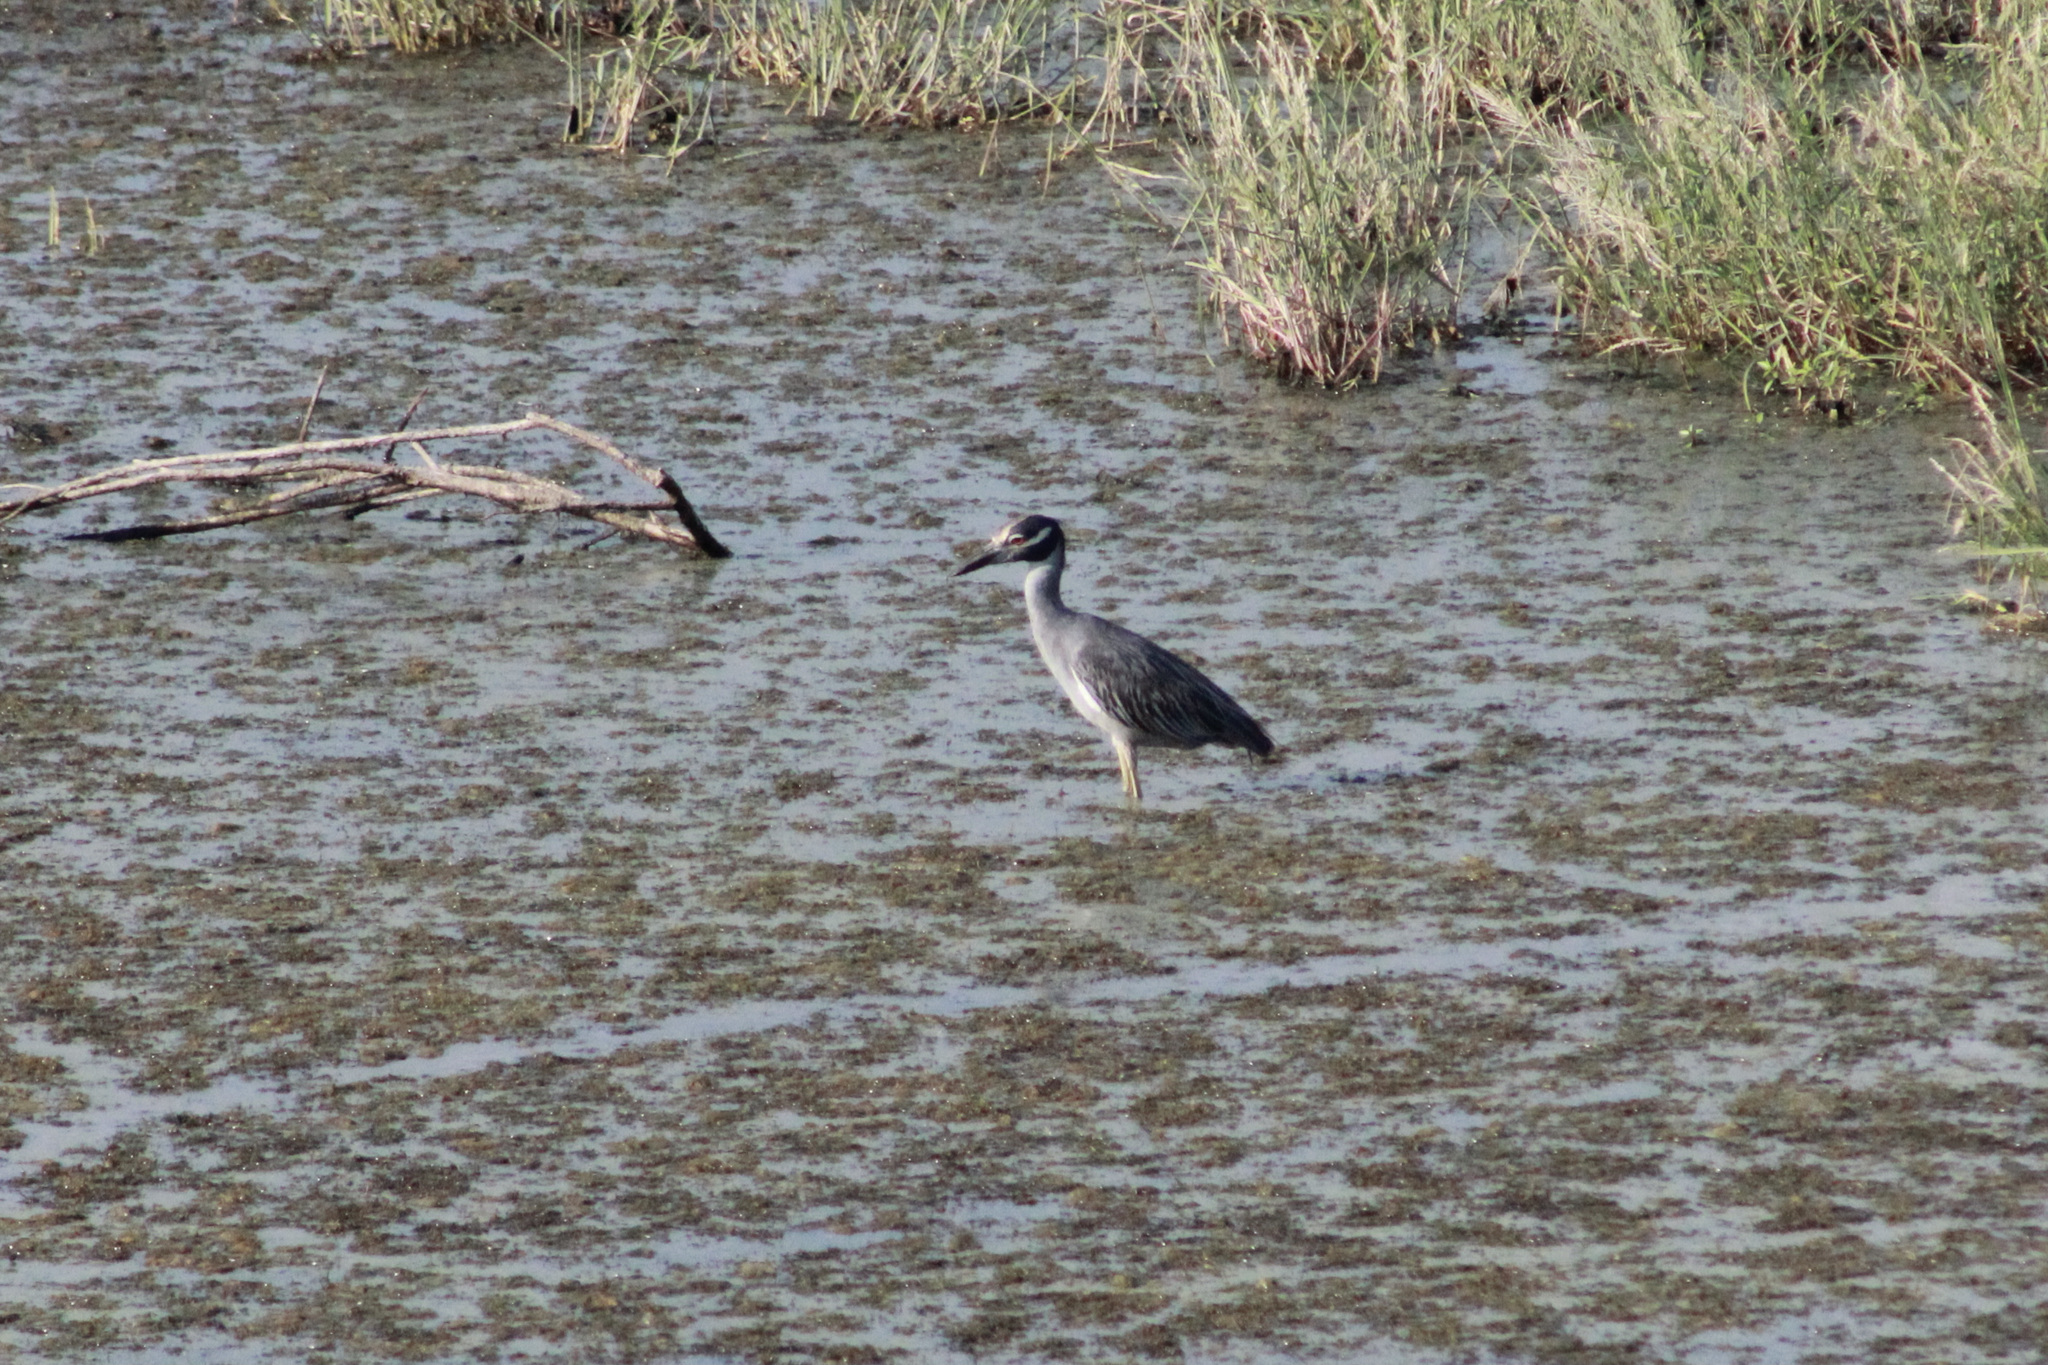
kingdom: Animalia
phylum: Chordata
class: Aves
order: Pelecaniformes
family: Ardeidae
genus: Nyctanassa
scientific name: Nyctanassa violacea
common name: Yellow-crowned night heron
